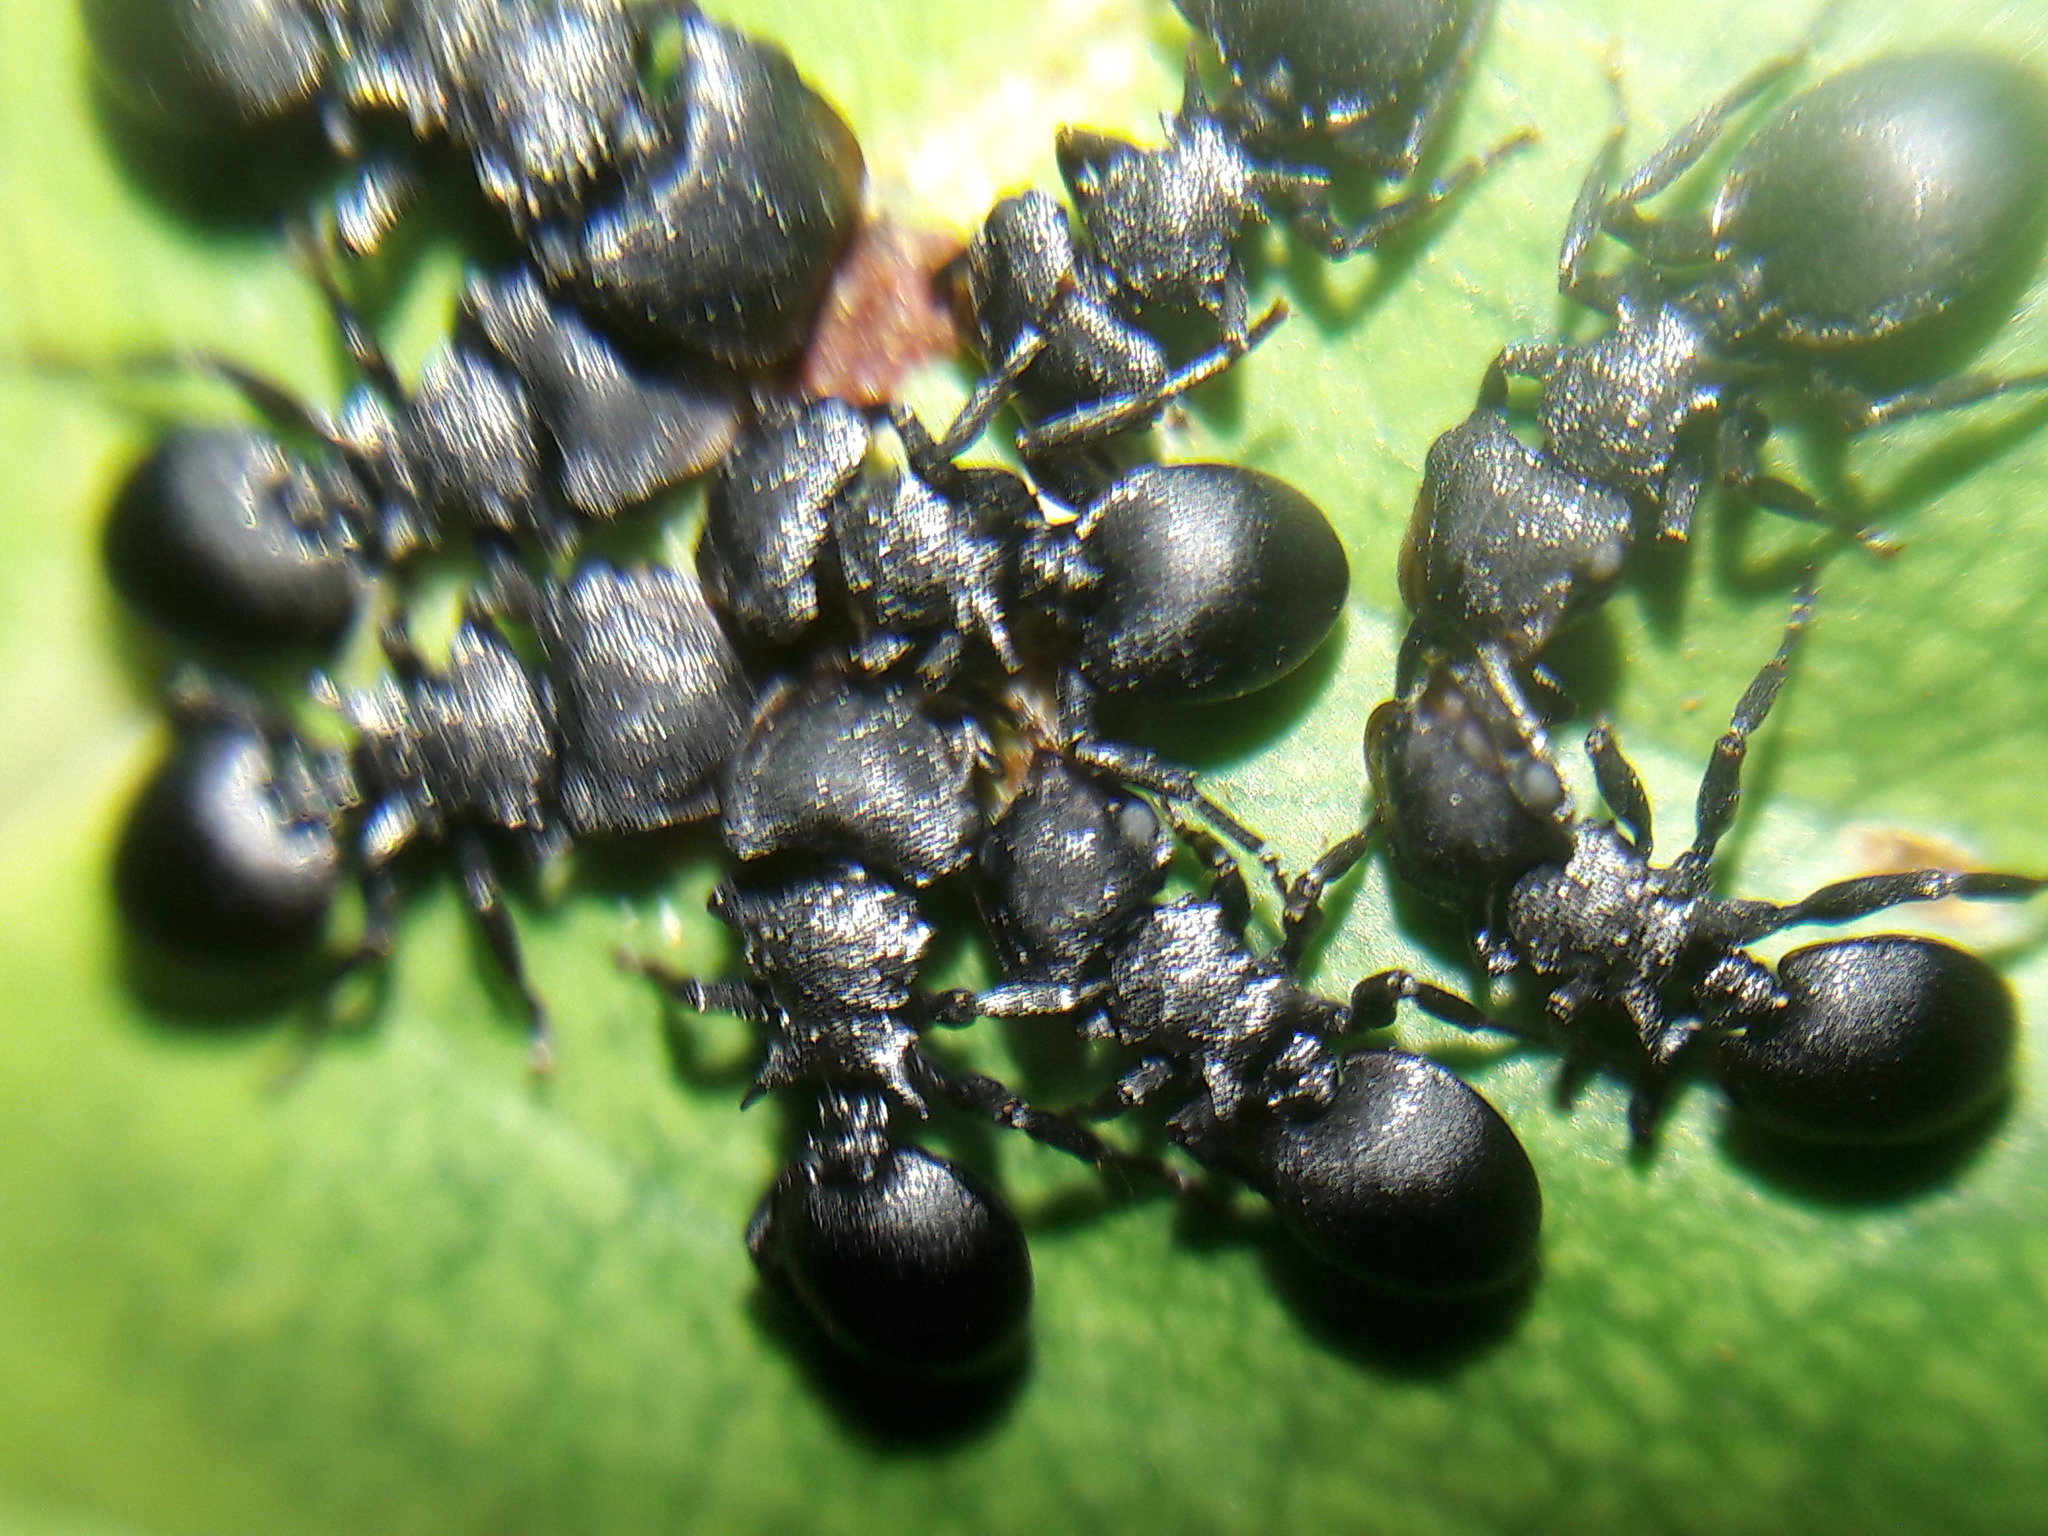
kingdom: Animalia
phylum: Arthropoda
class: Insecta
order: Hymenoptera
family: Formicidae
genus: Cephalotes
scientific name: Cephalotes pusillus
